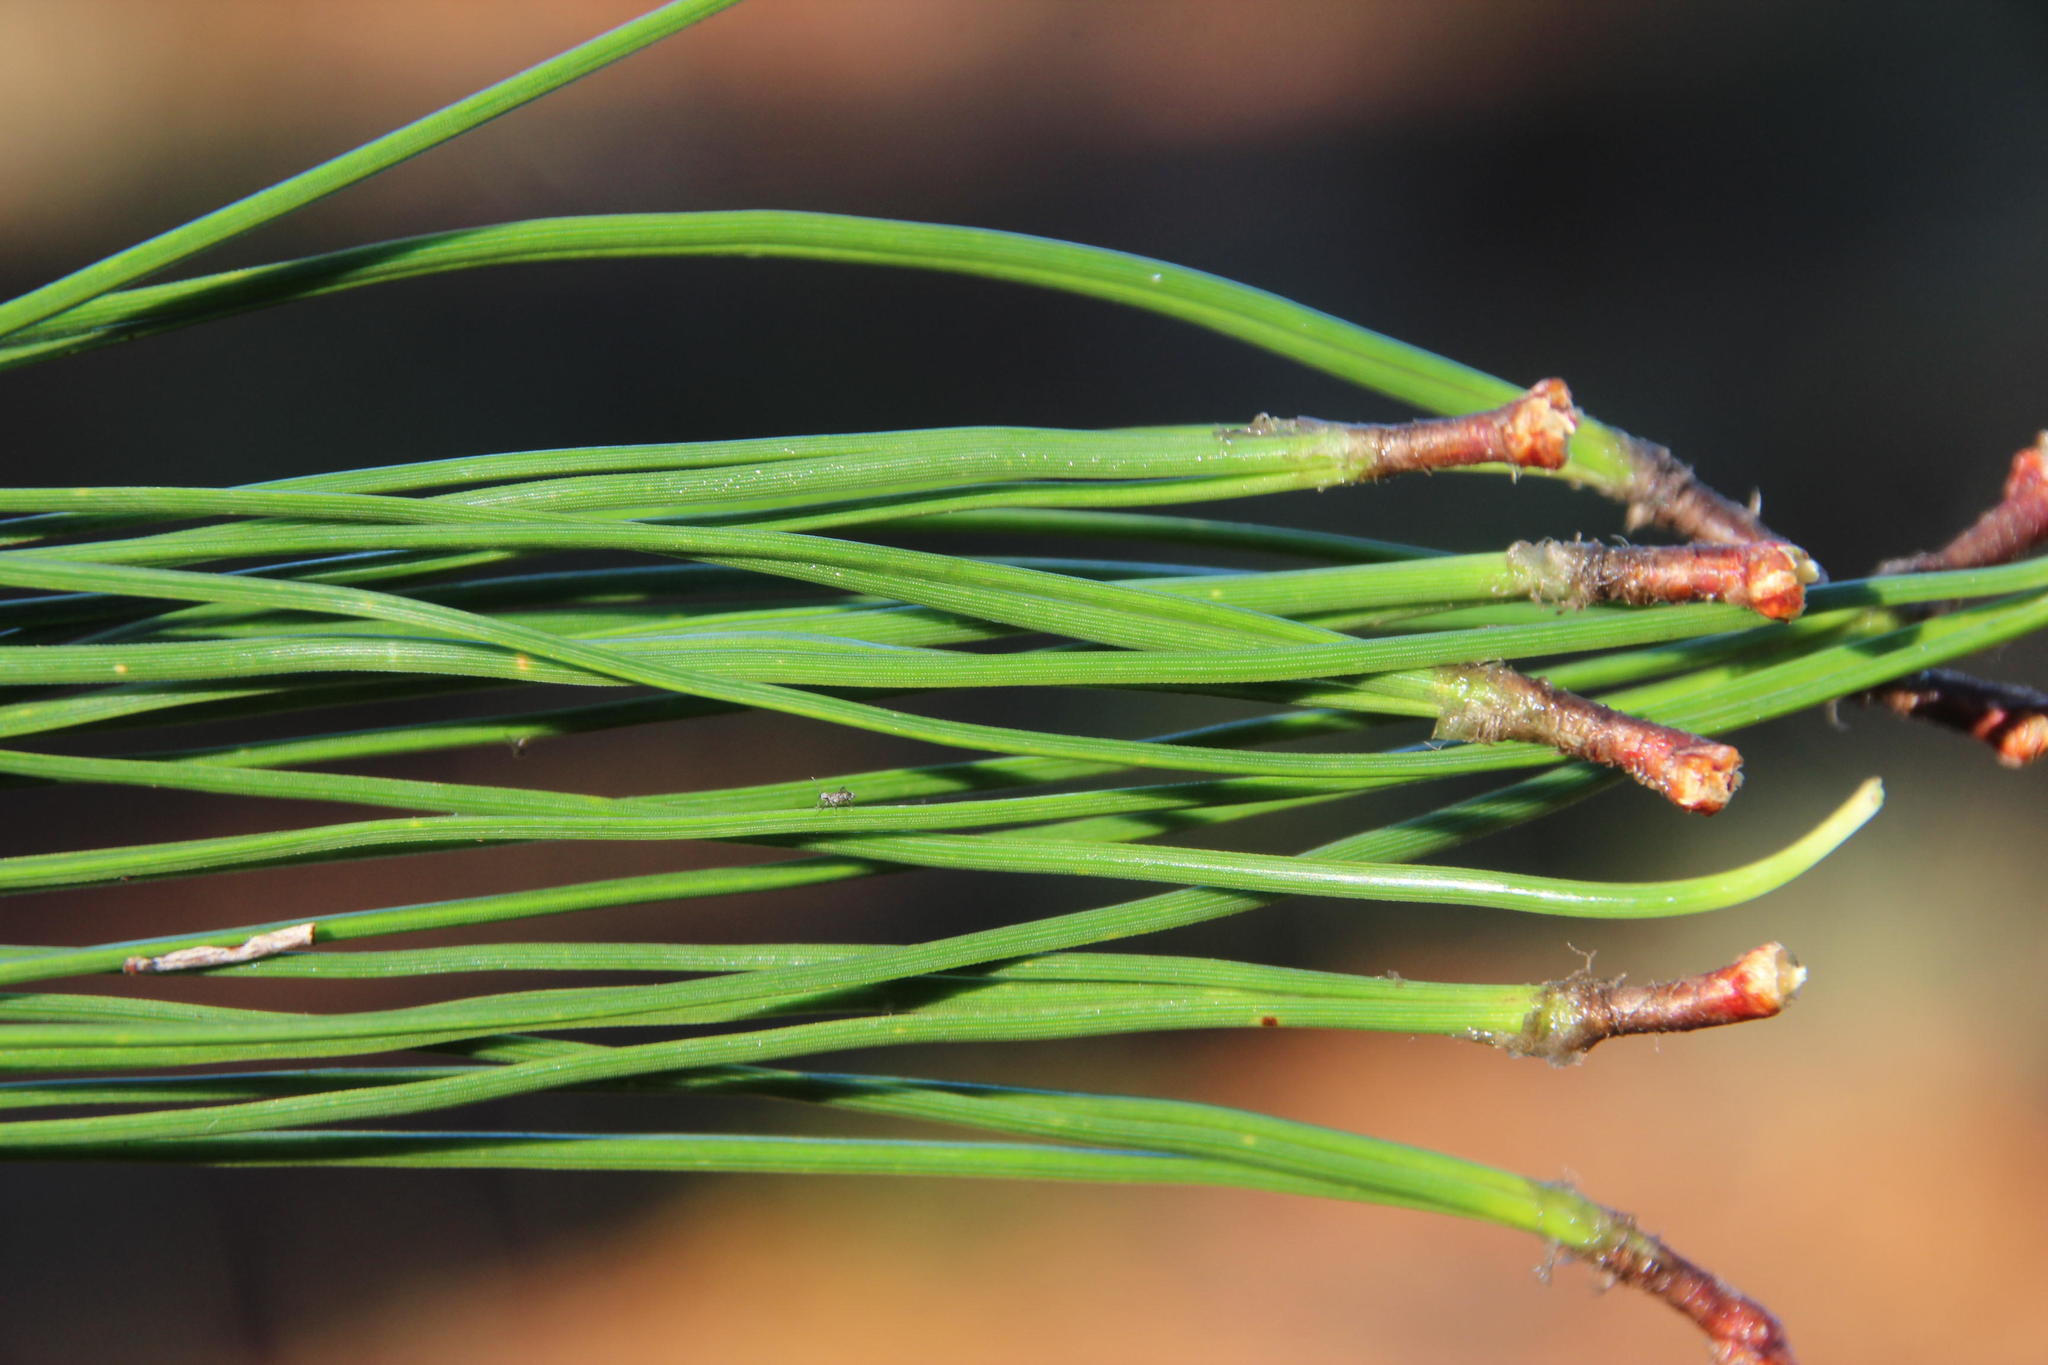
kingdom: Plantae
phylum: Tracheophyta
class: Pinopsida
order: Pinales
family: Pinaceae
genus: Pinus
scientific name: Pinus elliottii
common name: Slash pine
